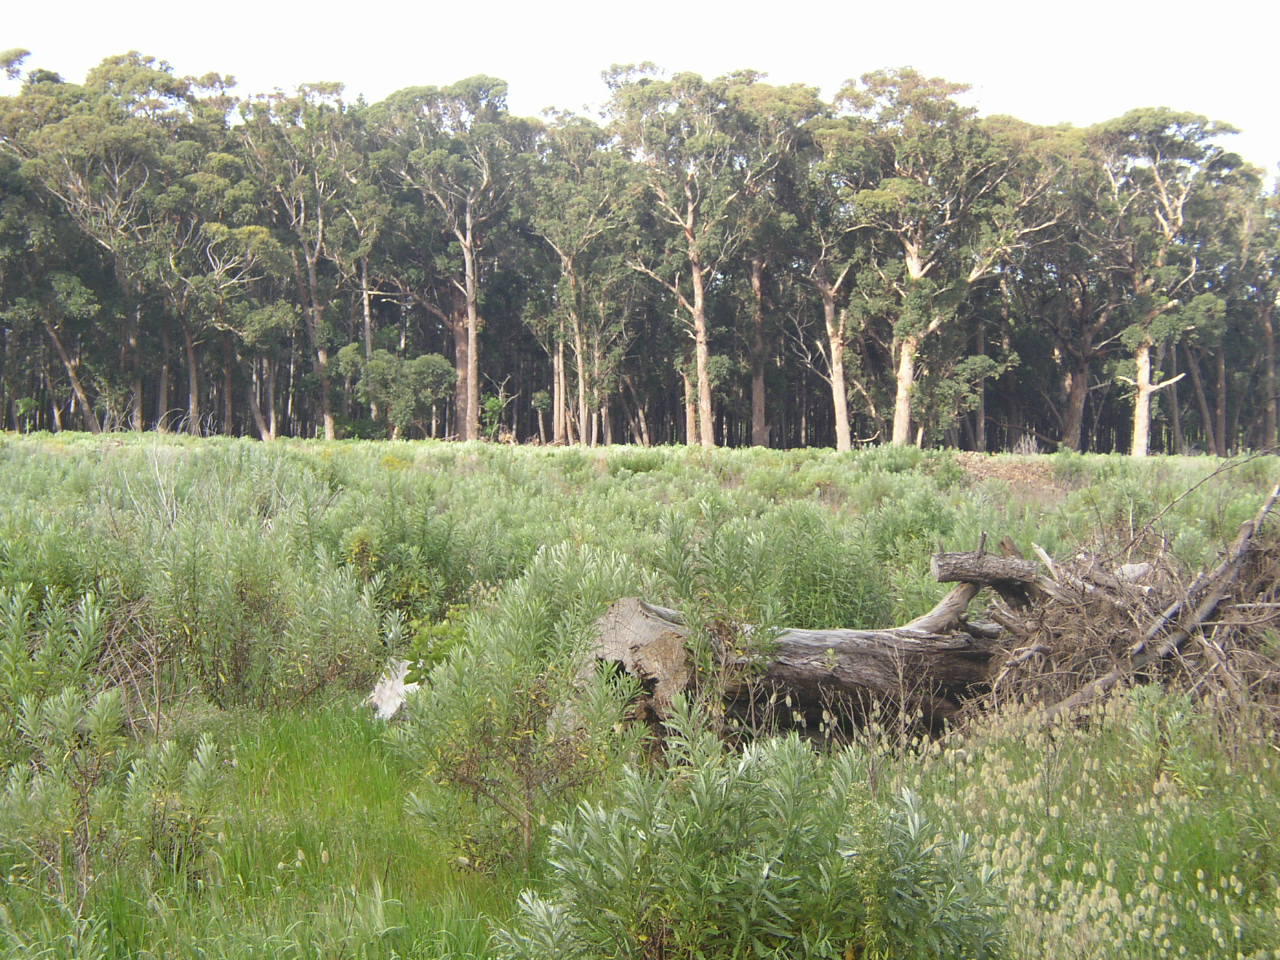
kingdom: Plantae
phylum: Tracheophyta
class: Magnoliopsida
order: Myrtales
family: Myrtaceae
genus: Eucalyptus
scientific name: Eucalyptus botryoides
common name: Bangalay
